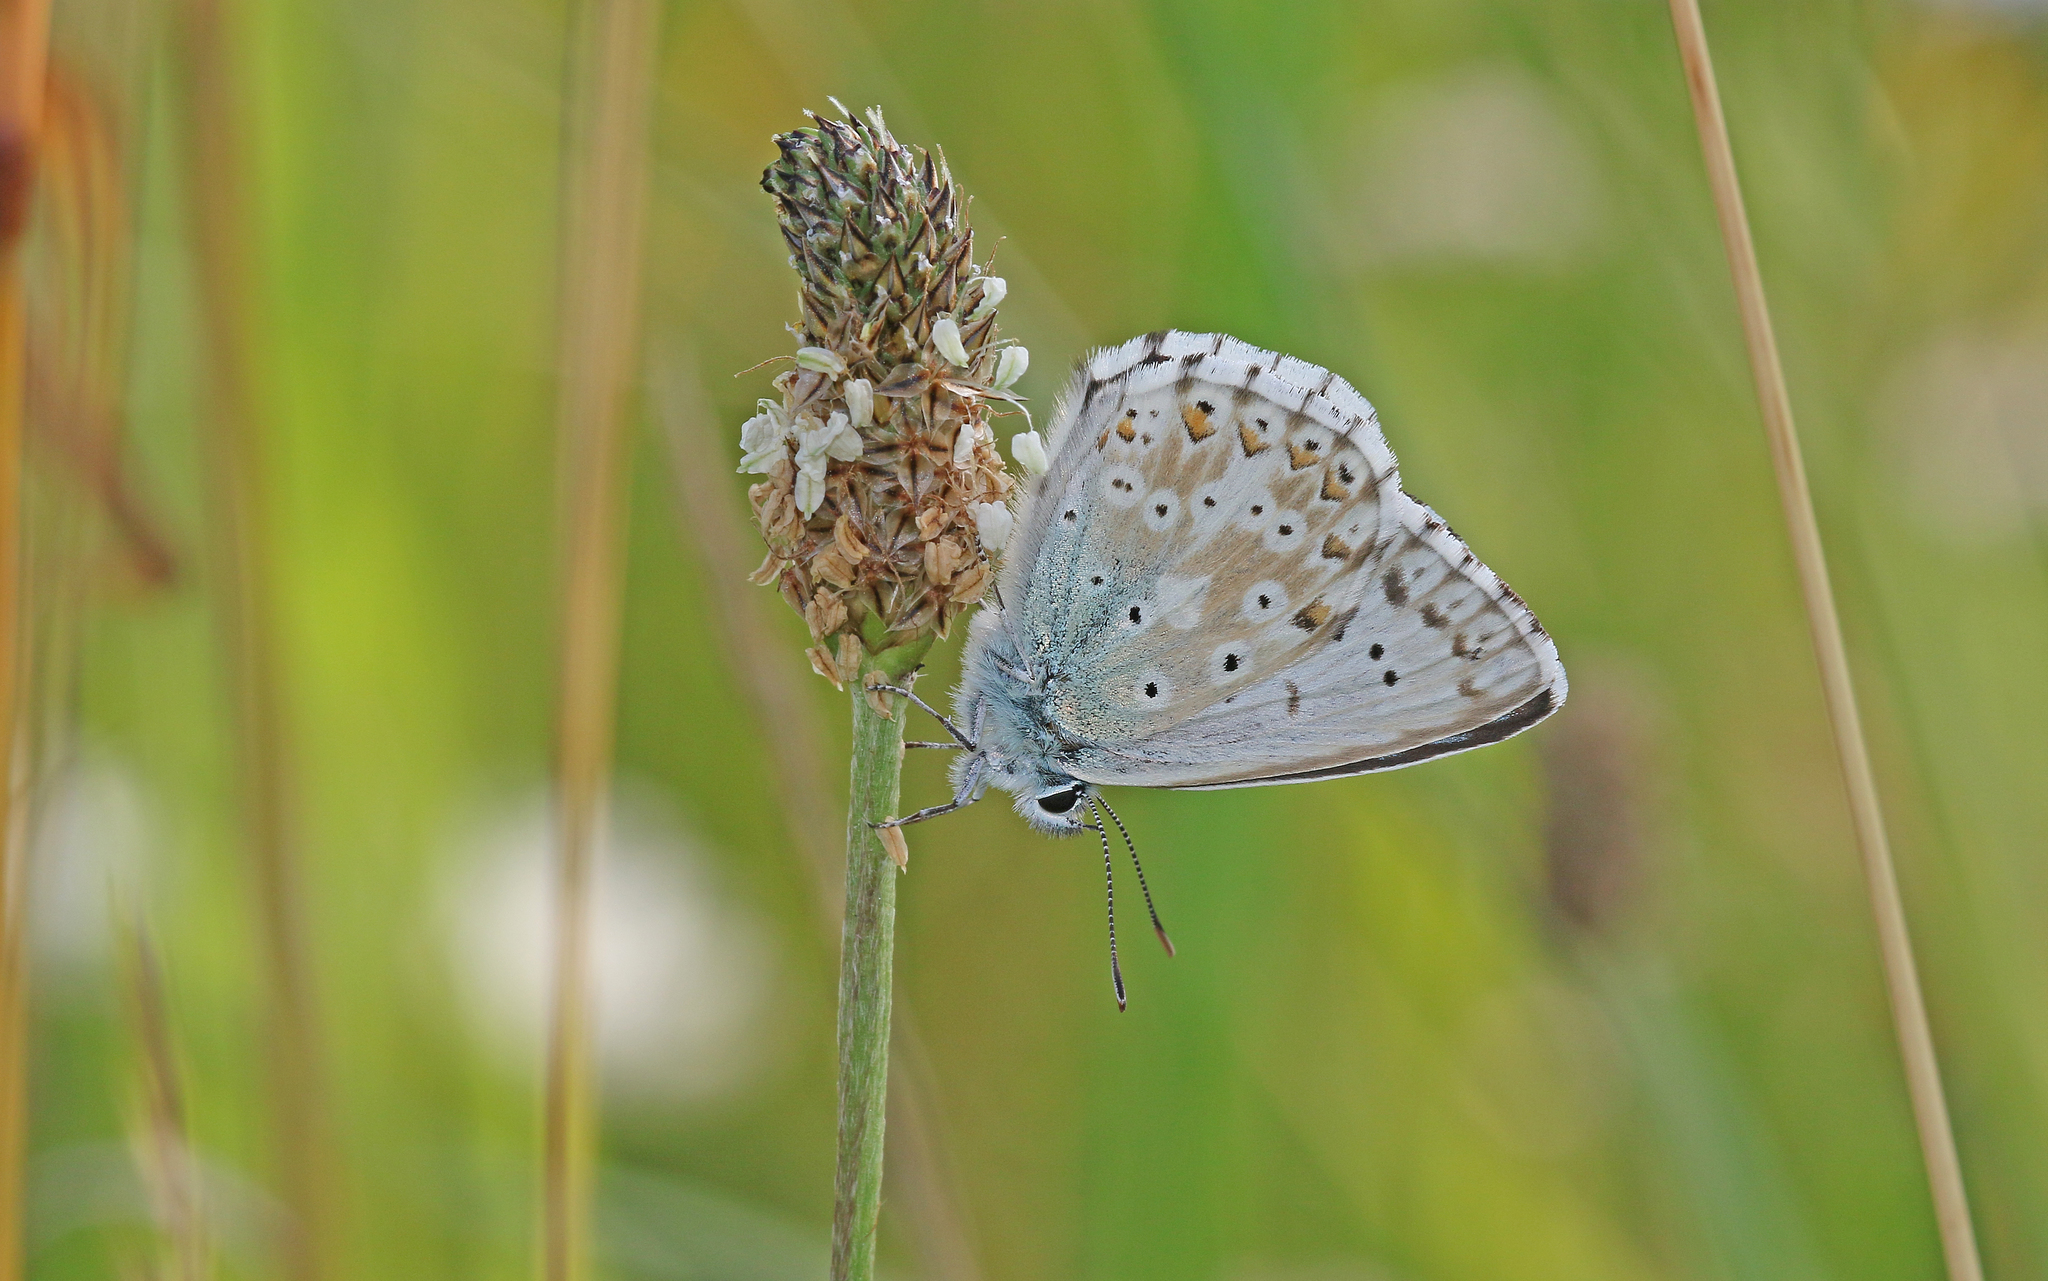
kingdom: Animalia
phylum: Arthropoda
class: Insecta
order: Lepidoptera
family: Lycaenidae
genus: Lysandra
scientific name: Lysandra coridon
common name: Chalkhill blue
